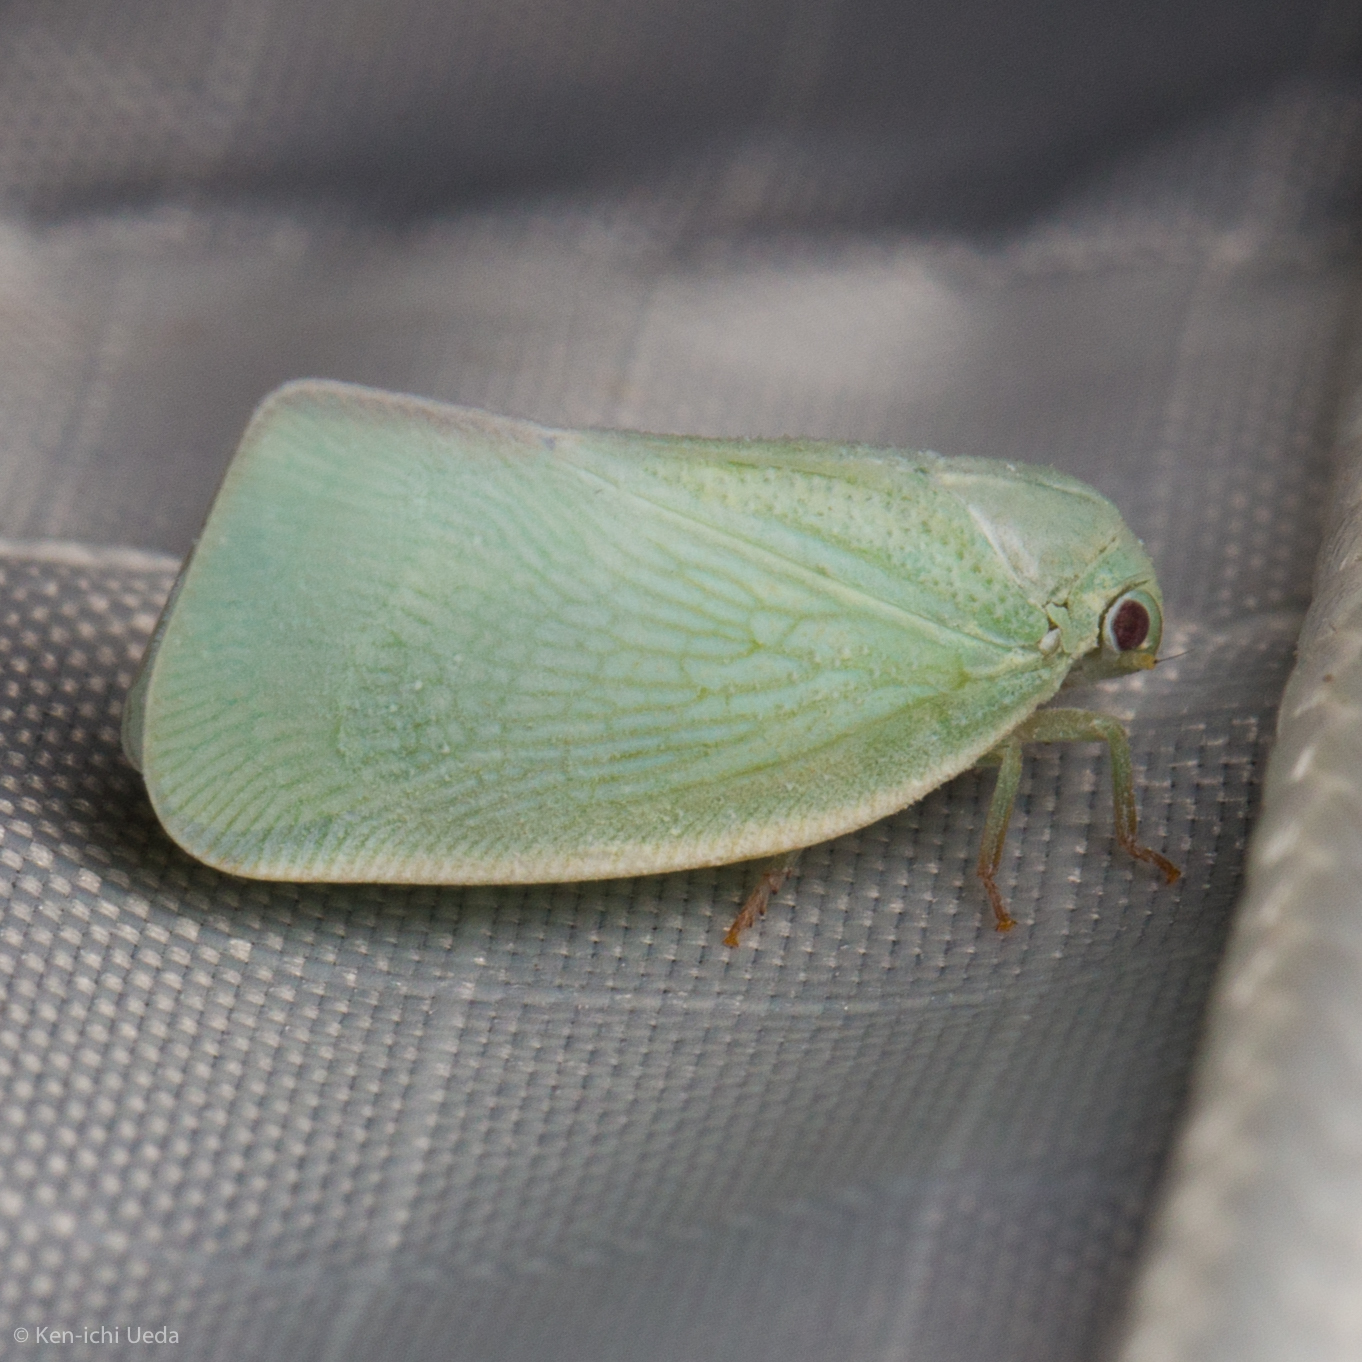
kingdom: Animalia
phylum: Arthropoda
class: Insecta
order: Hemiptera
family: Flatidae
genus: Flatormenis
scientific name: Flatormenis proxima
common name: Northern flatid planthopper
